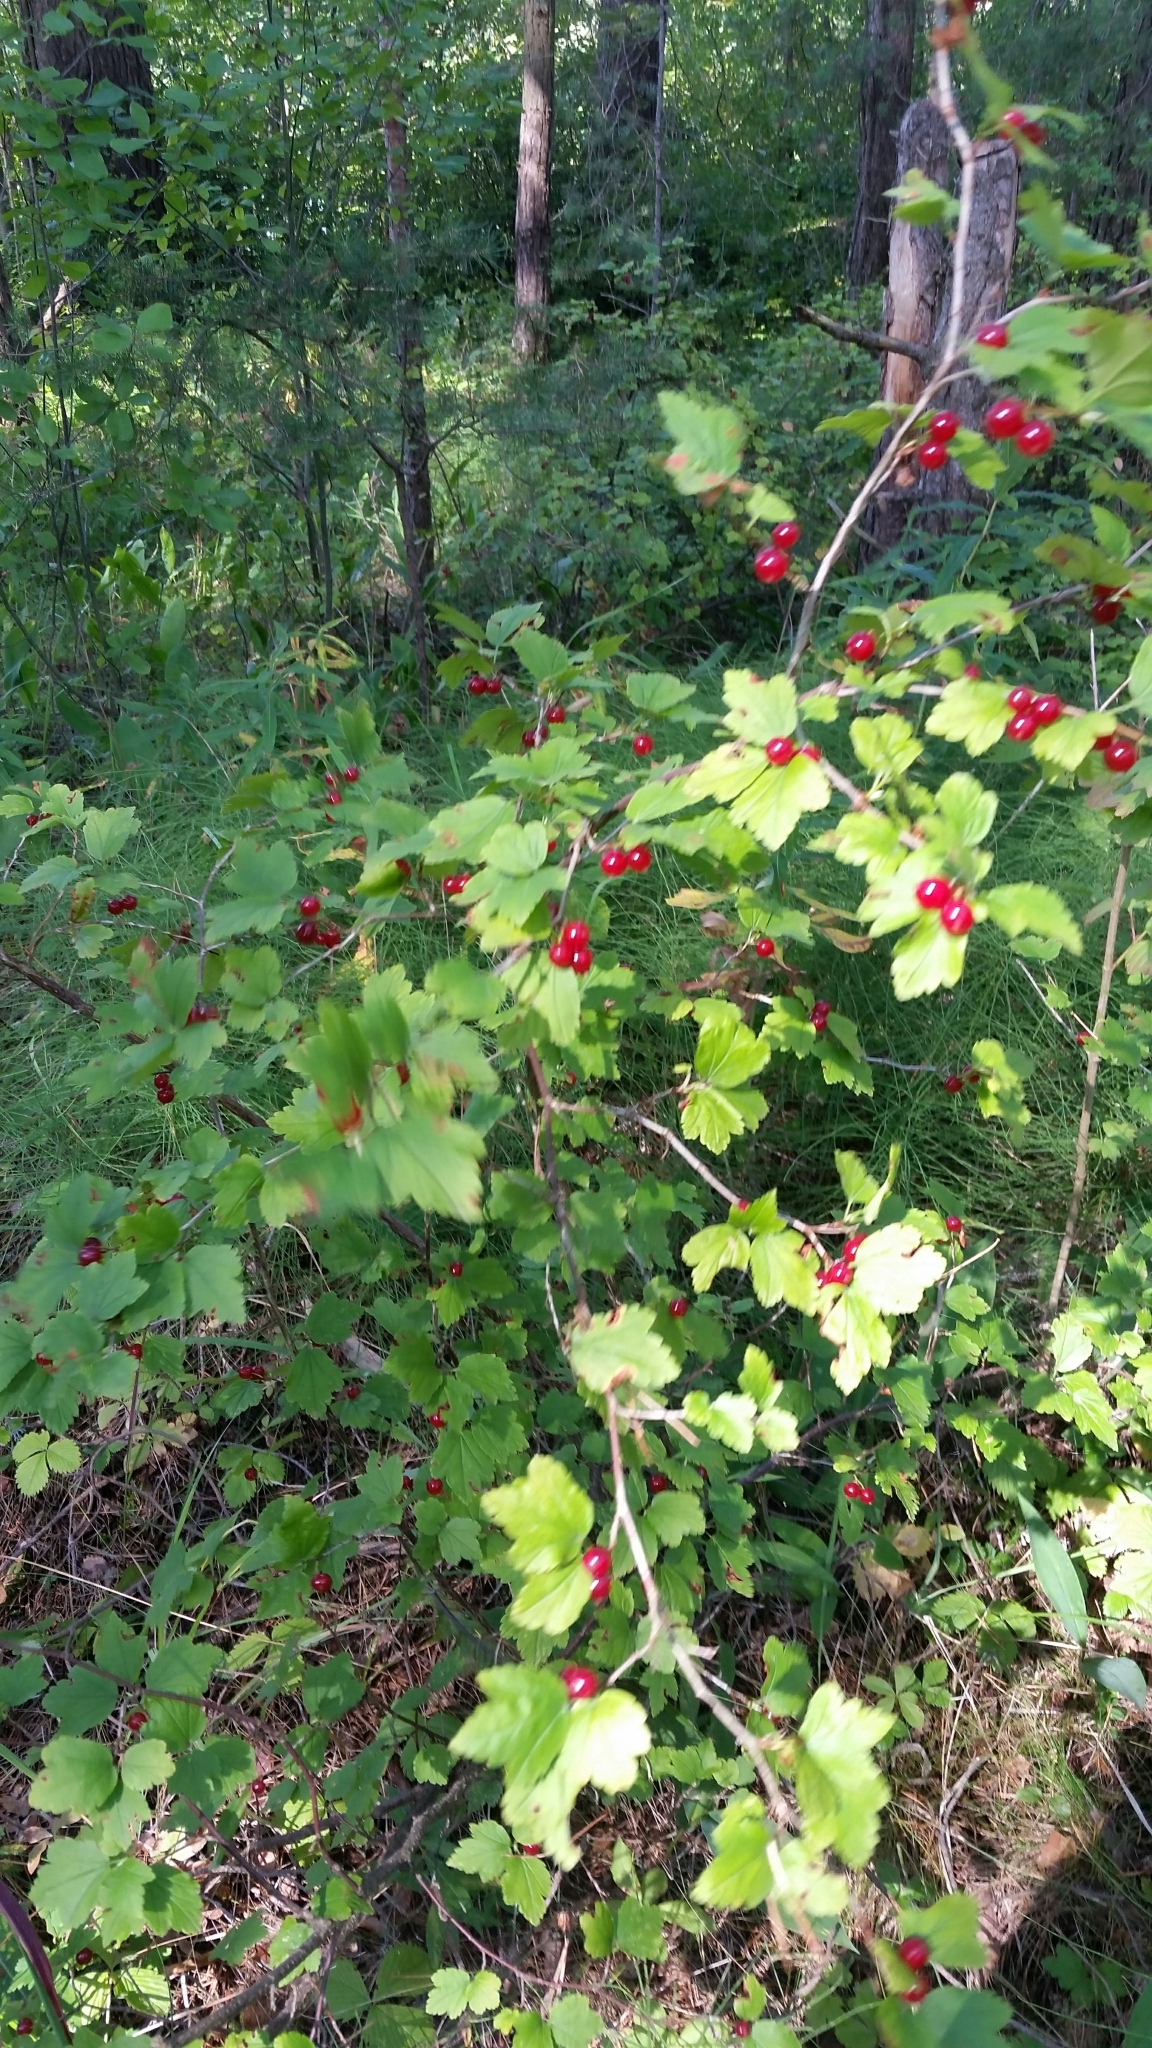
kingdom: Plantae
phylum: Tracheophyta
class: Magnoliopsida
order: Saxifragales
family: Grossulariaceae
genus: Ribes
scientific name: Ribes alpinum
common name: Alpine currant
